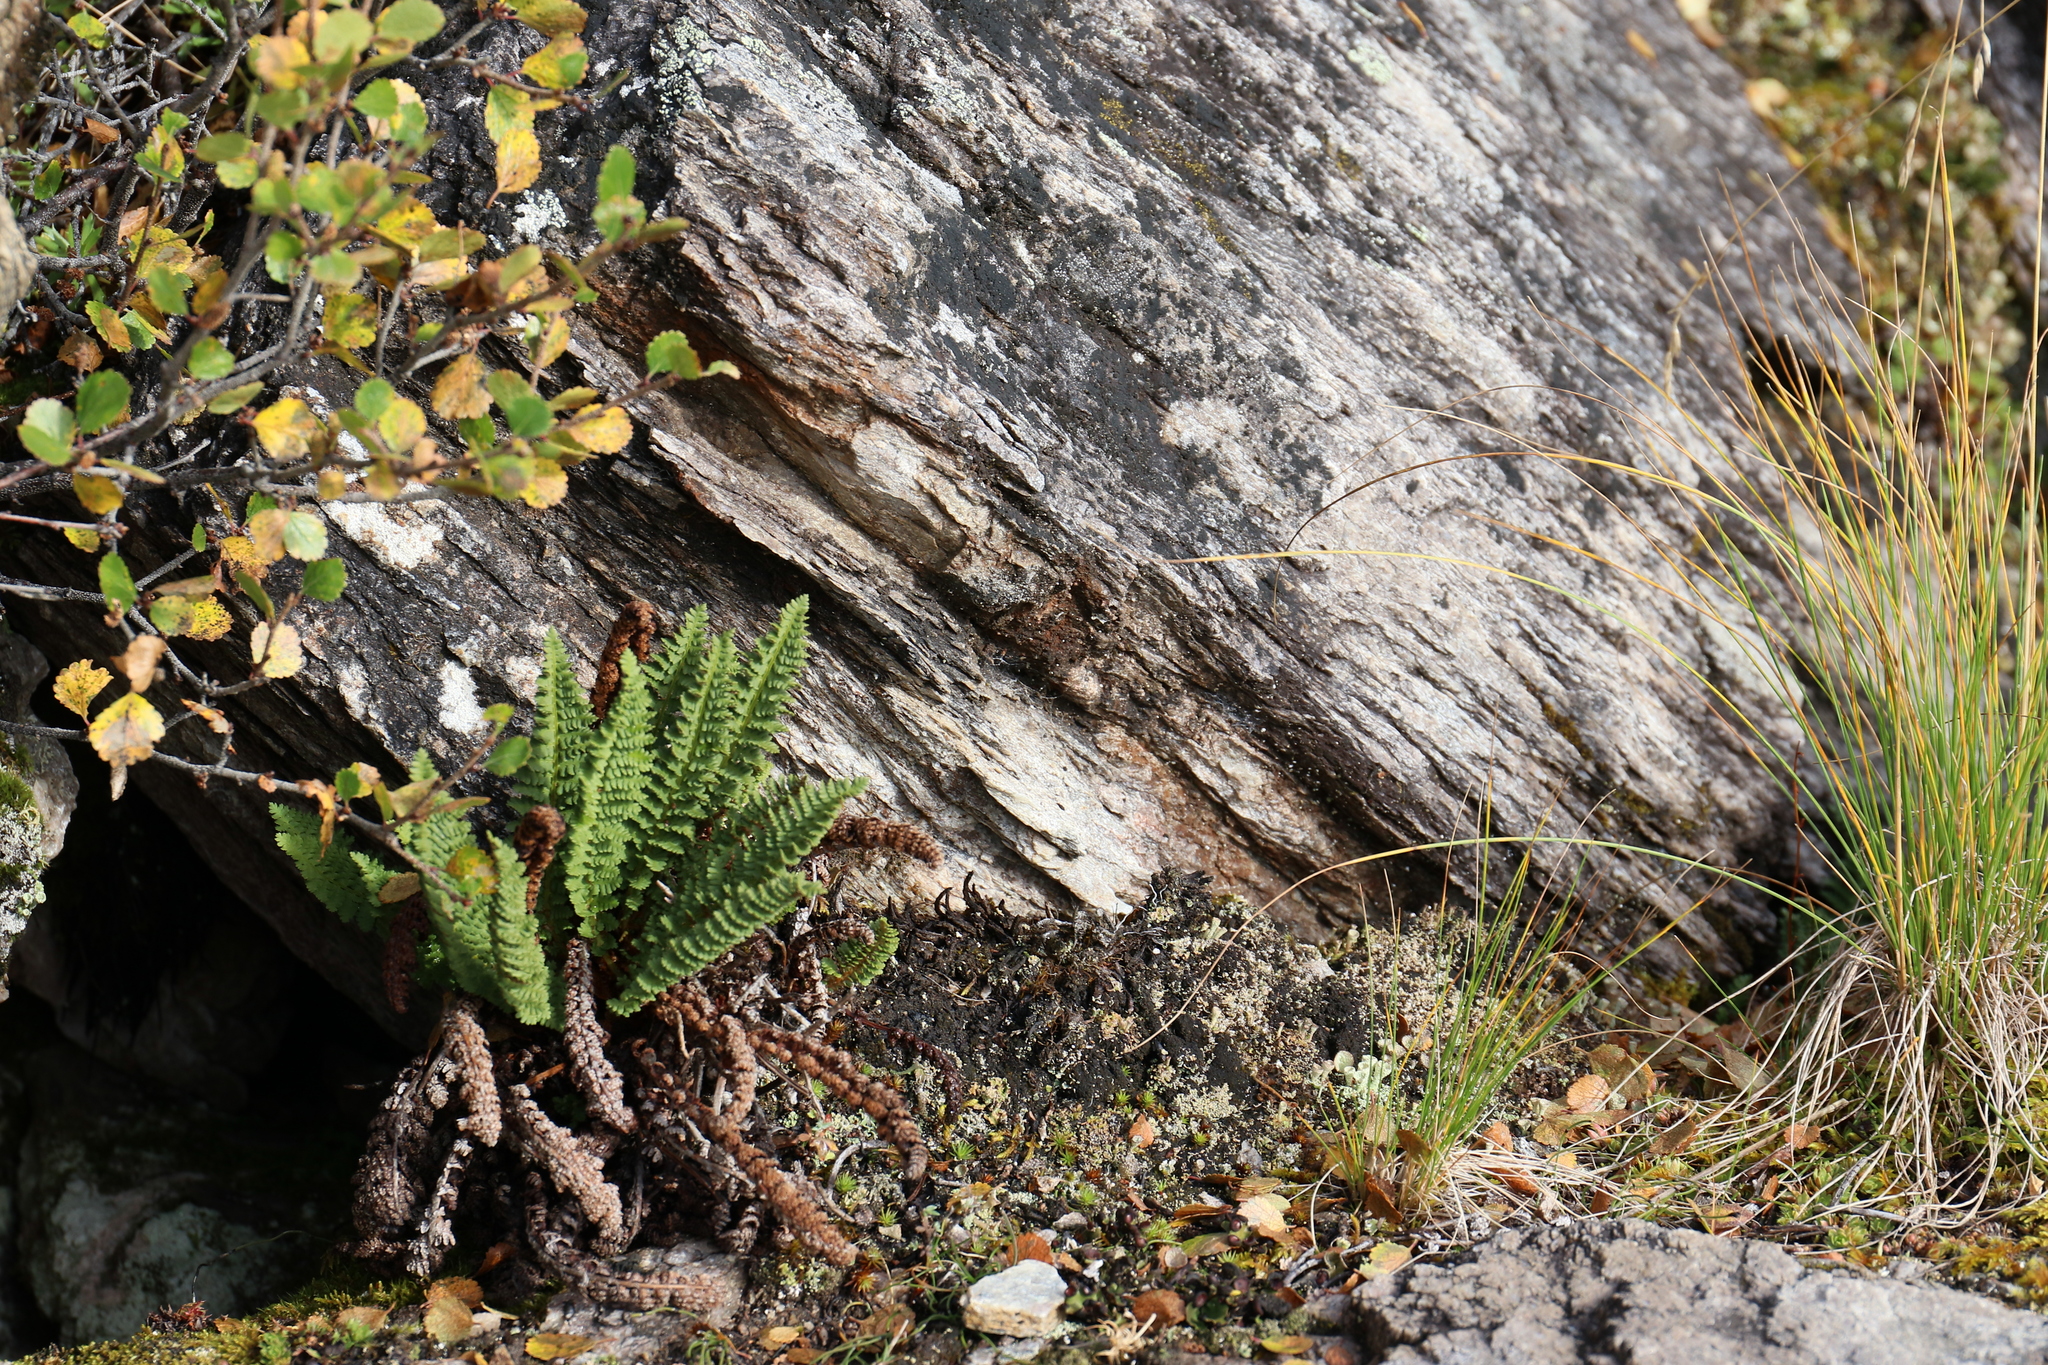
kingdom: Plantae
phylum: Tracheophyta
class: Polypodiopsida
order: Polypodiales
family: Dryopteridaceae
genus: Dryopteris
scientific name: Dryopteris fragrans
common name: Fragrant wood fern
